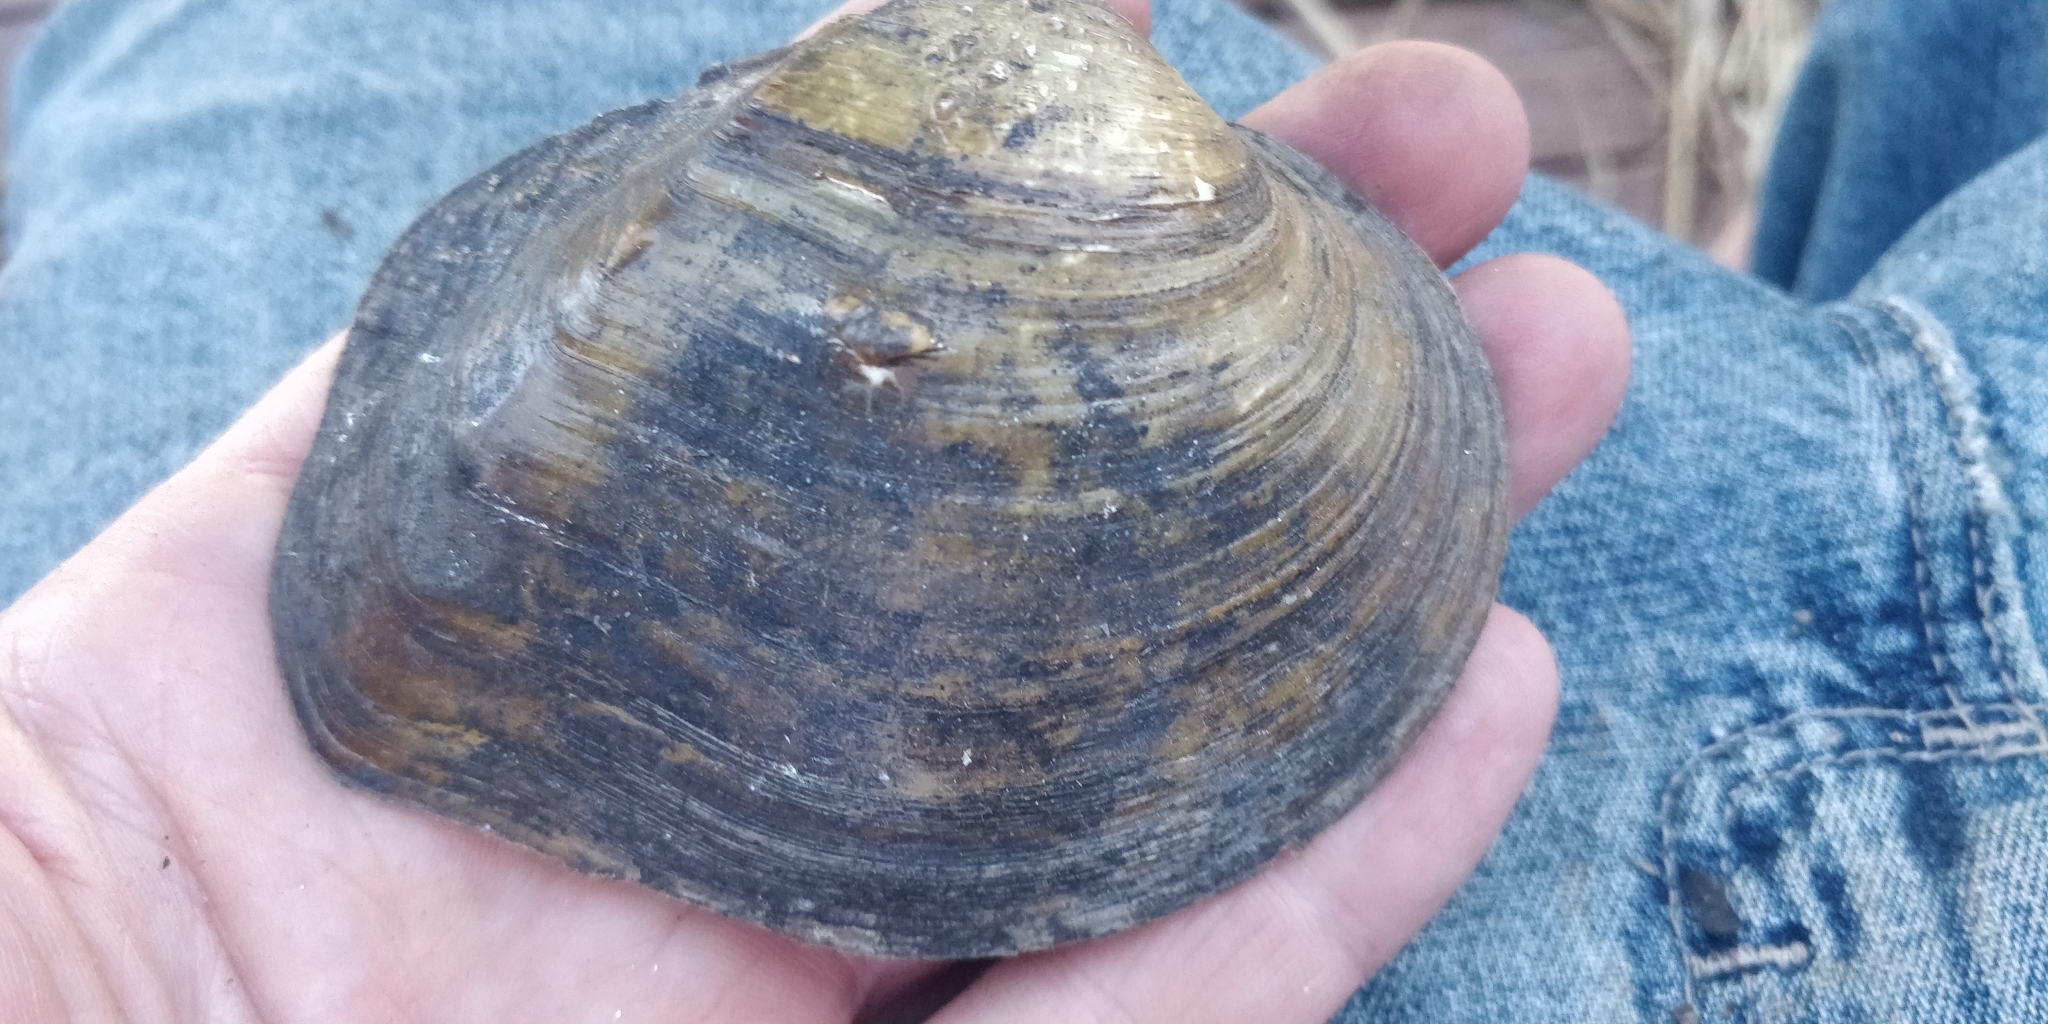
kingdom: Animalia
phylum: Mollusca
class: Bivalvia
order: Unionida
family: Unionidae
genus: Quadrula
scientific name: Quadrula quadrula
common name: Mapleleaf
